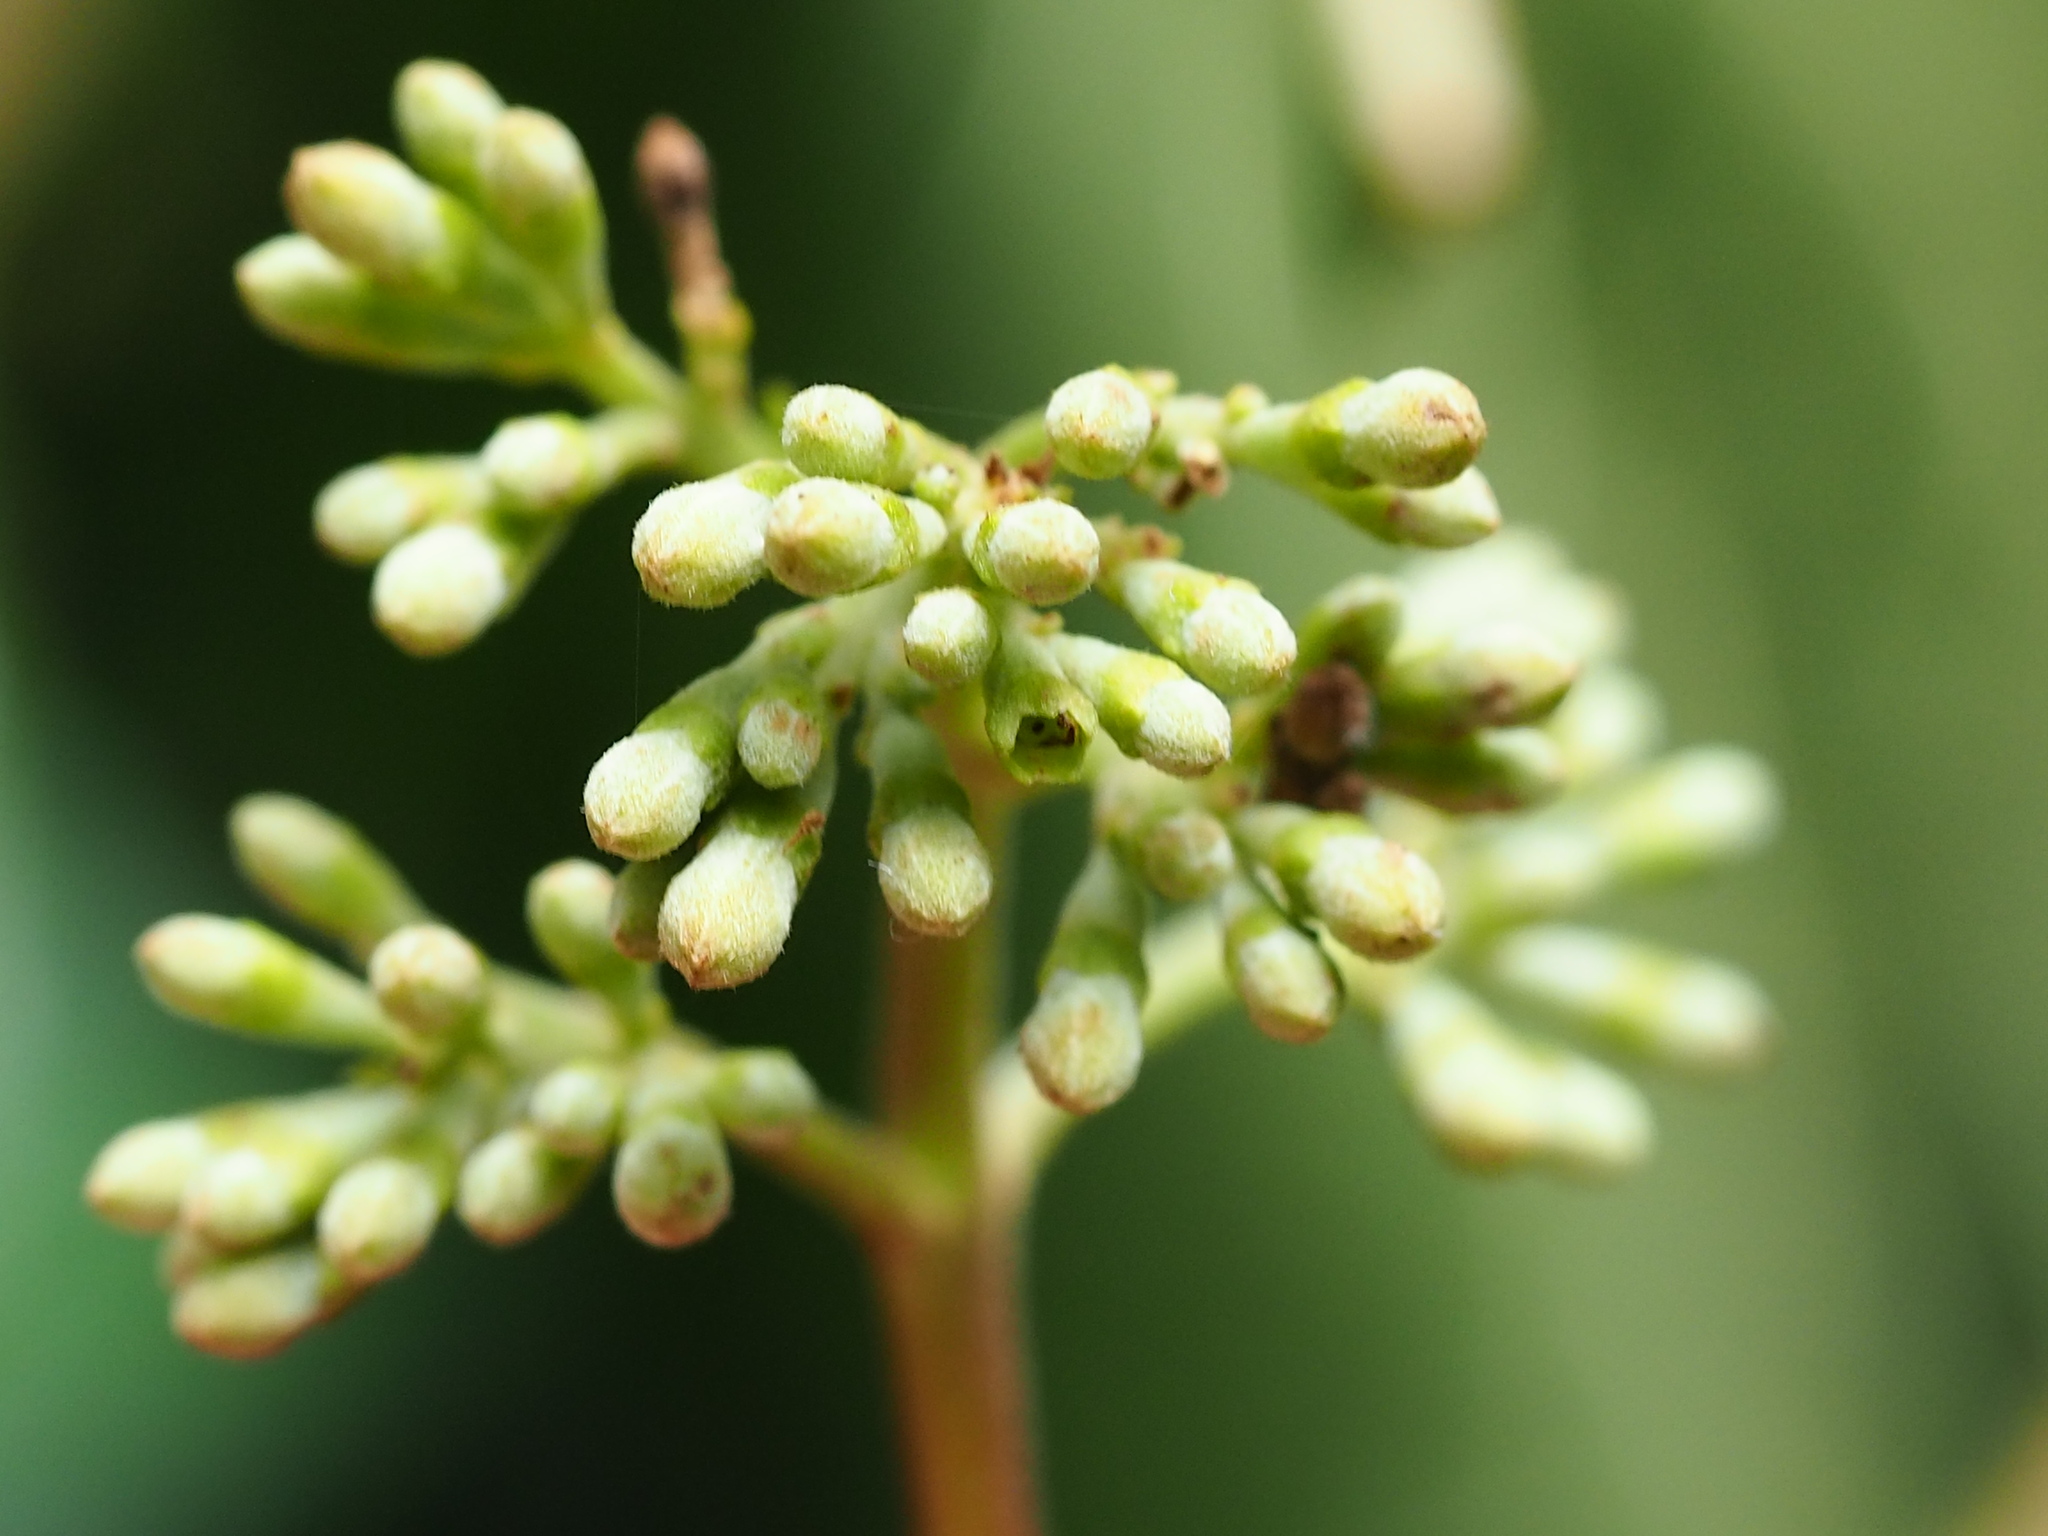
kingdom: Plantae
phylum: Tracheophyta
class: Magnoliopsida
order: Gentianales
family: Rubiaceae
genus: Cinchona
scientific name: Cinchona pubescens
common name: Quinine
